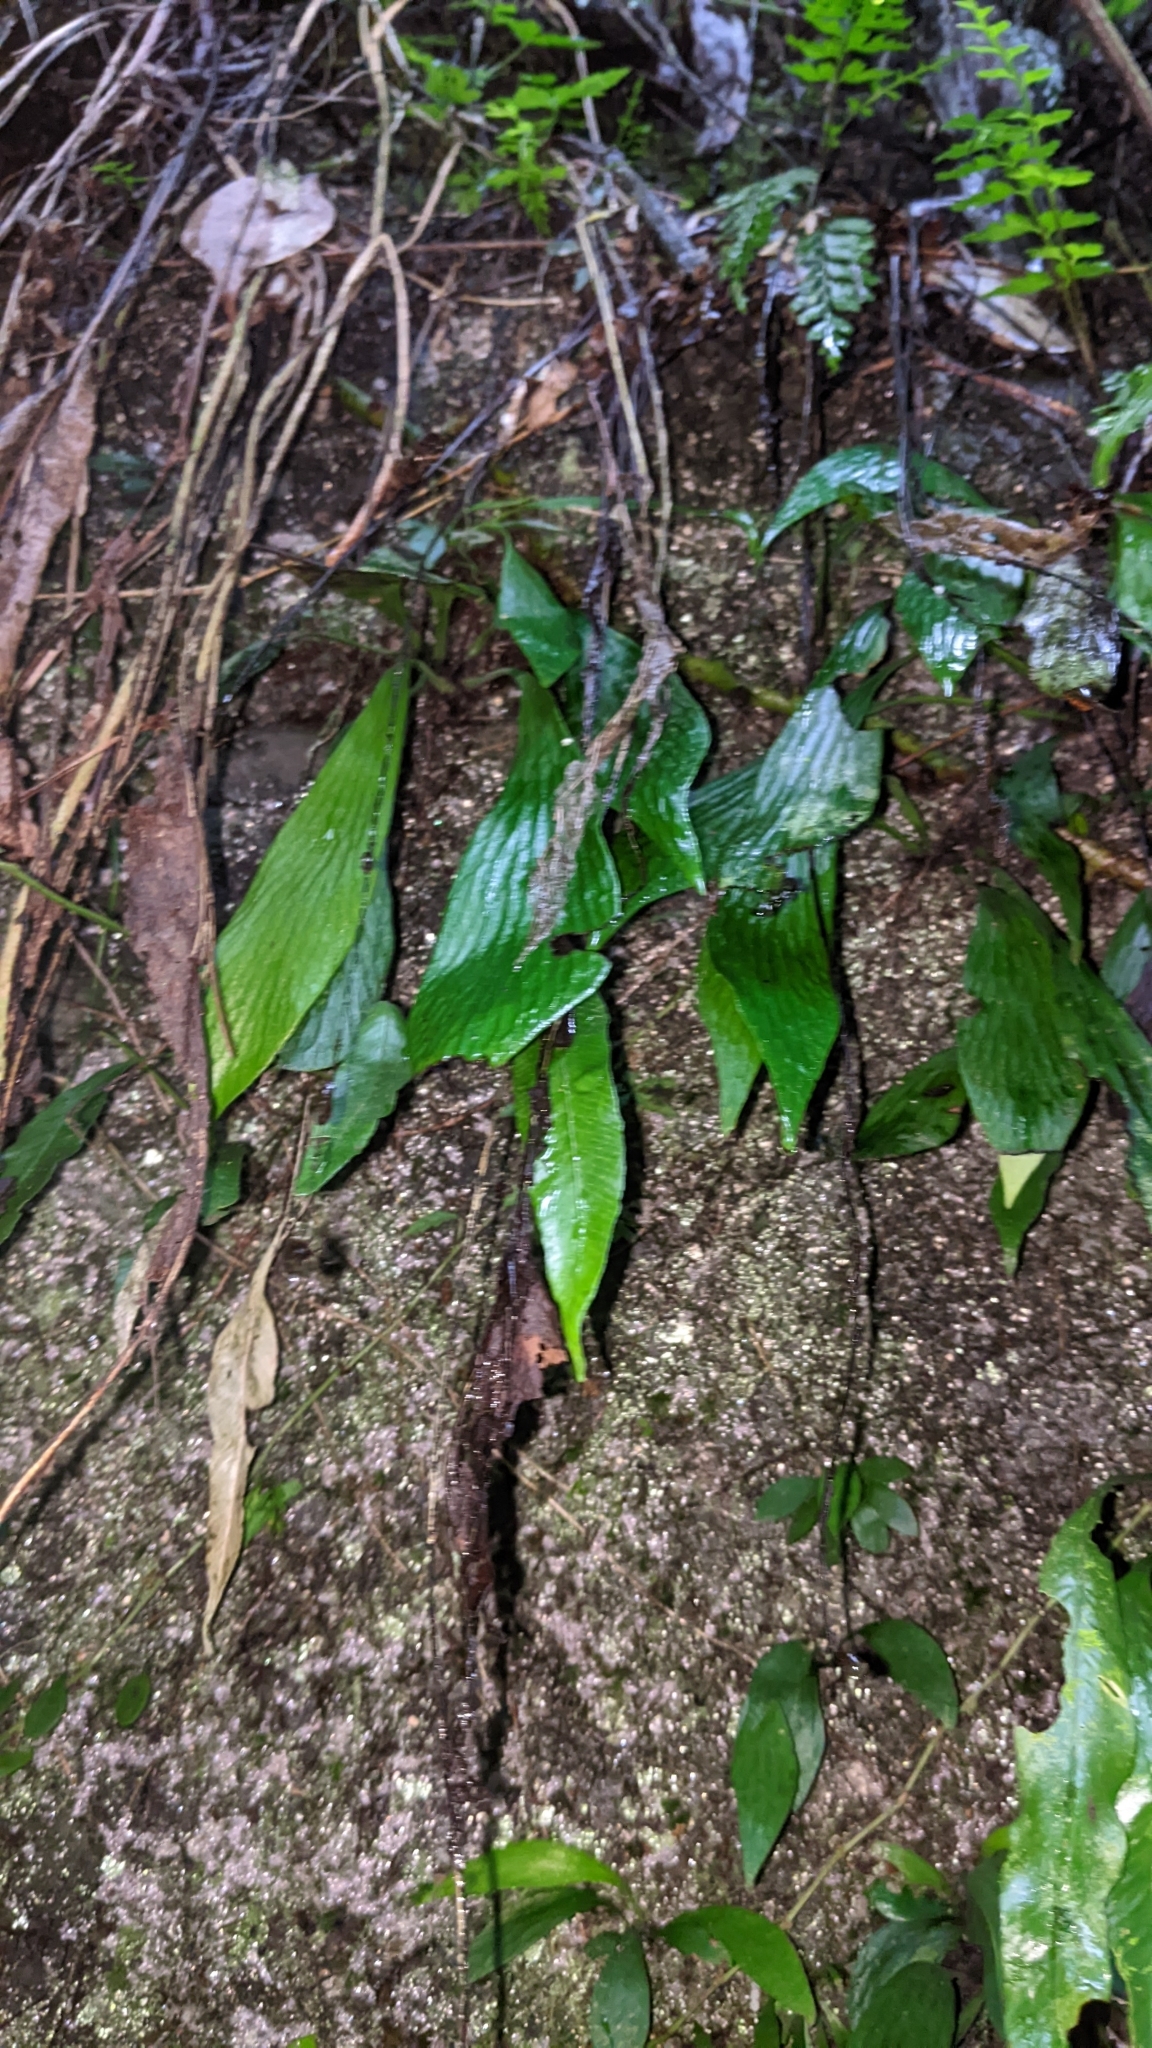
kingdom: Plantae
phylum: Tracheophyta
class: Polypodiopsida
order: Polypodiales
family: Pteridaceae
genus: Antrophyum
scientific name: Antrophyum formosanum
